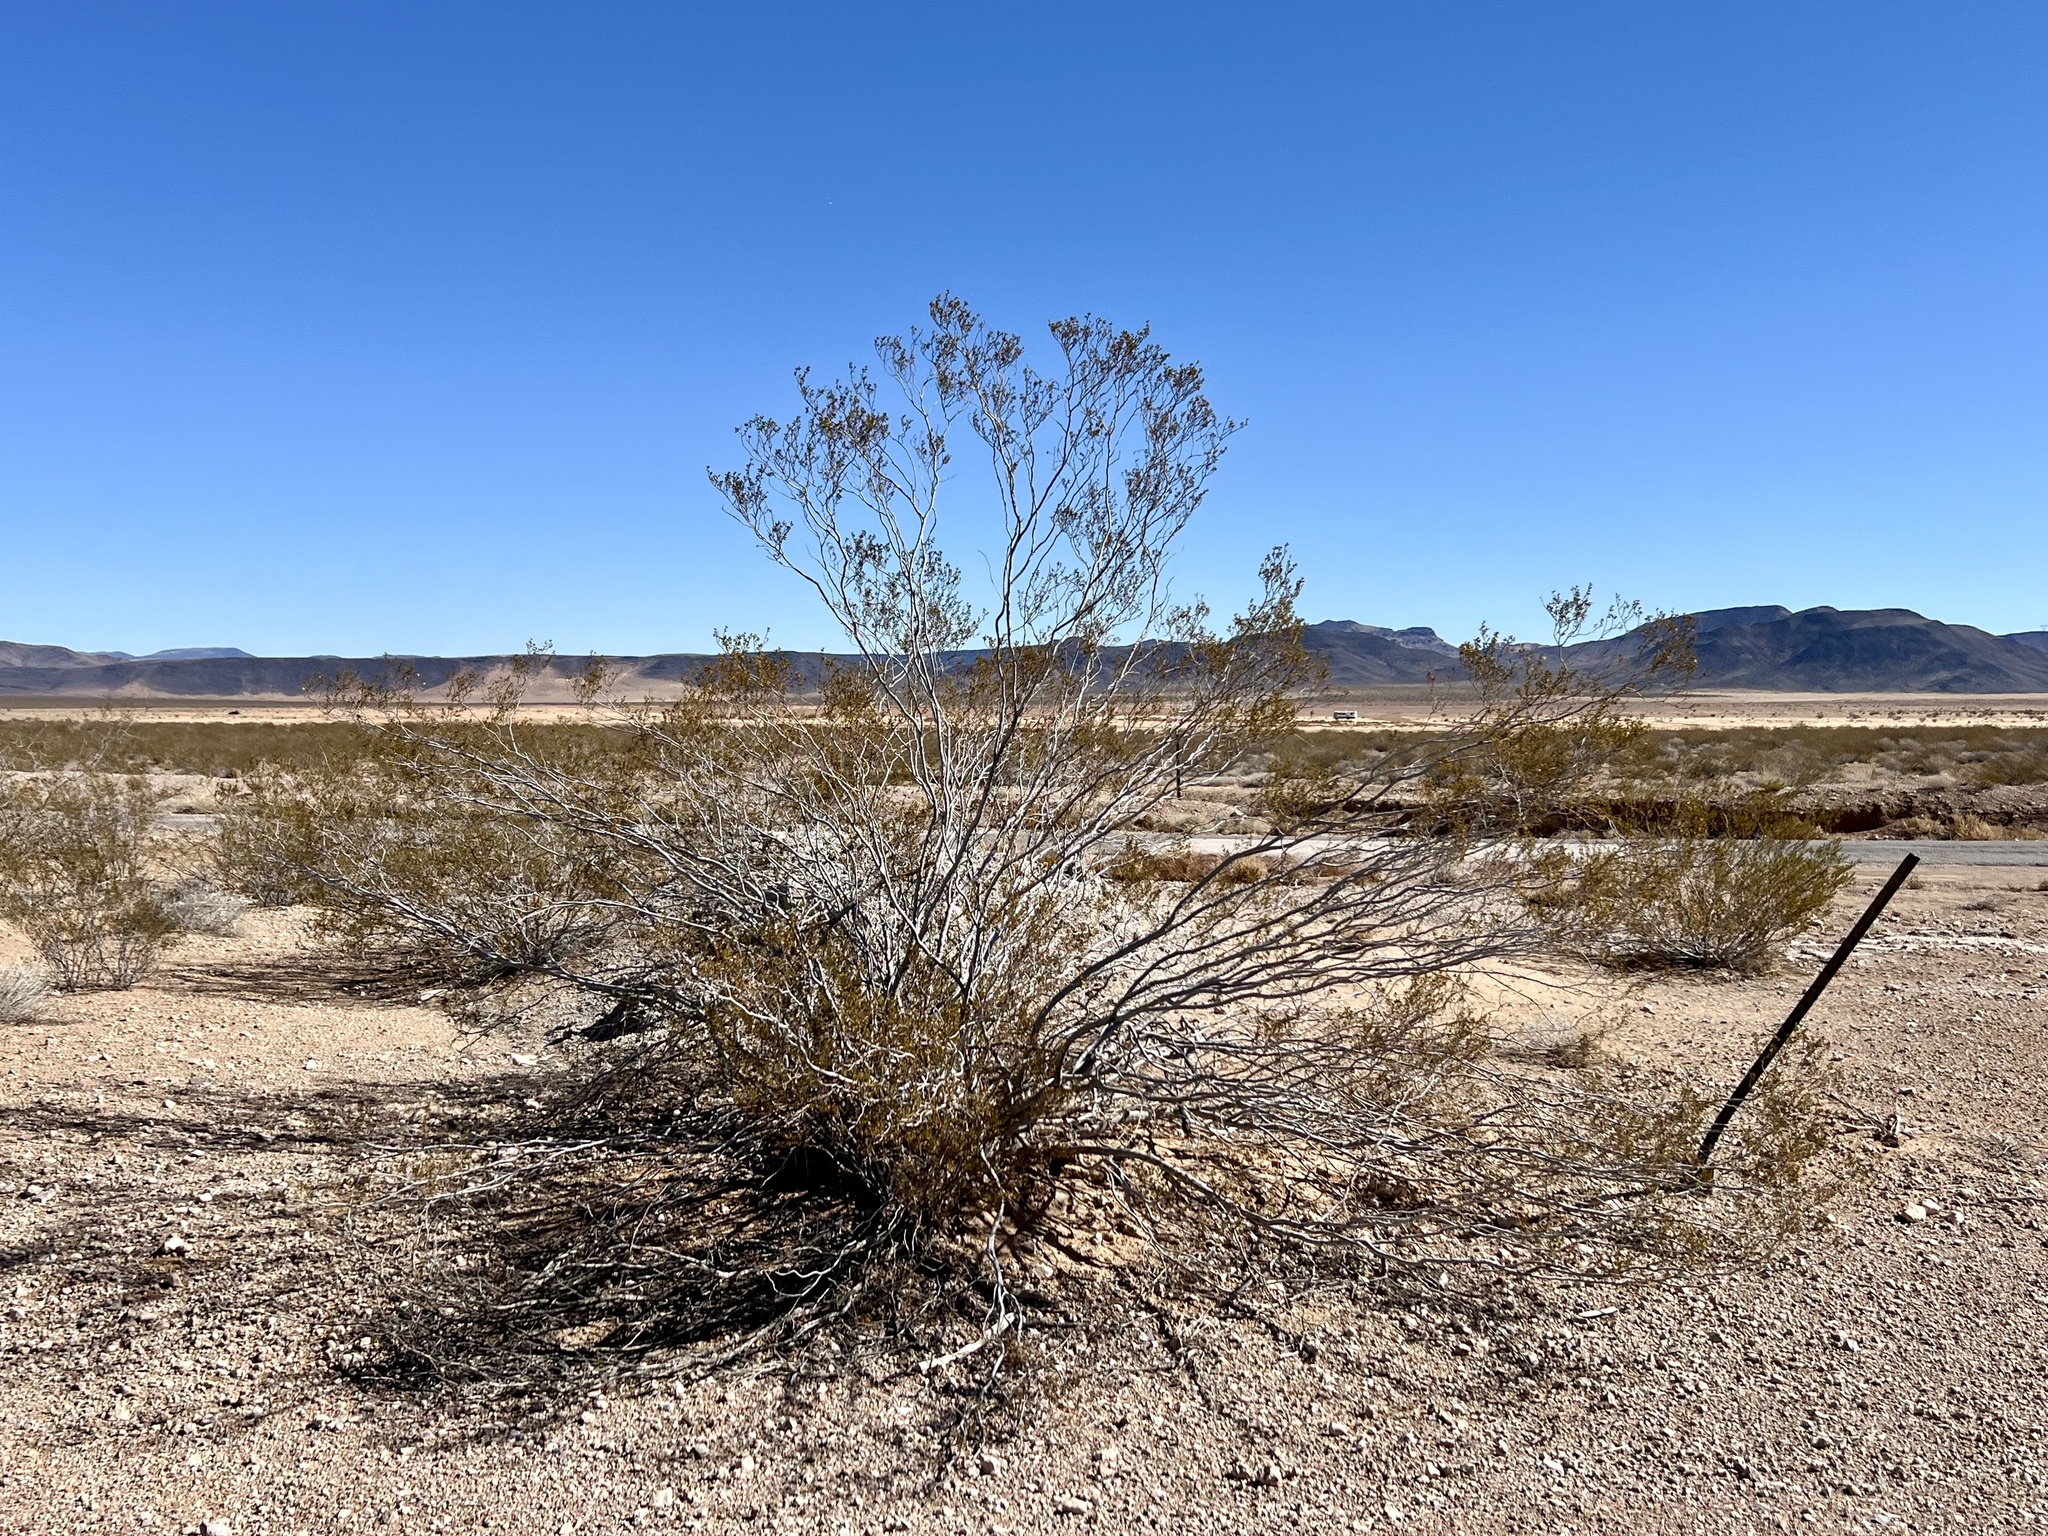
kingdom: Plantae
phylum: Tracheophyta
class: Magnoliopsida
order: Zygophyllales
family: Zygophyllaceae
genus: Larrea
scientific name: Larrea tridentata
